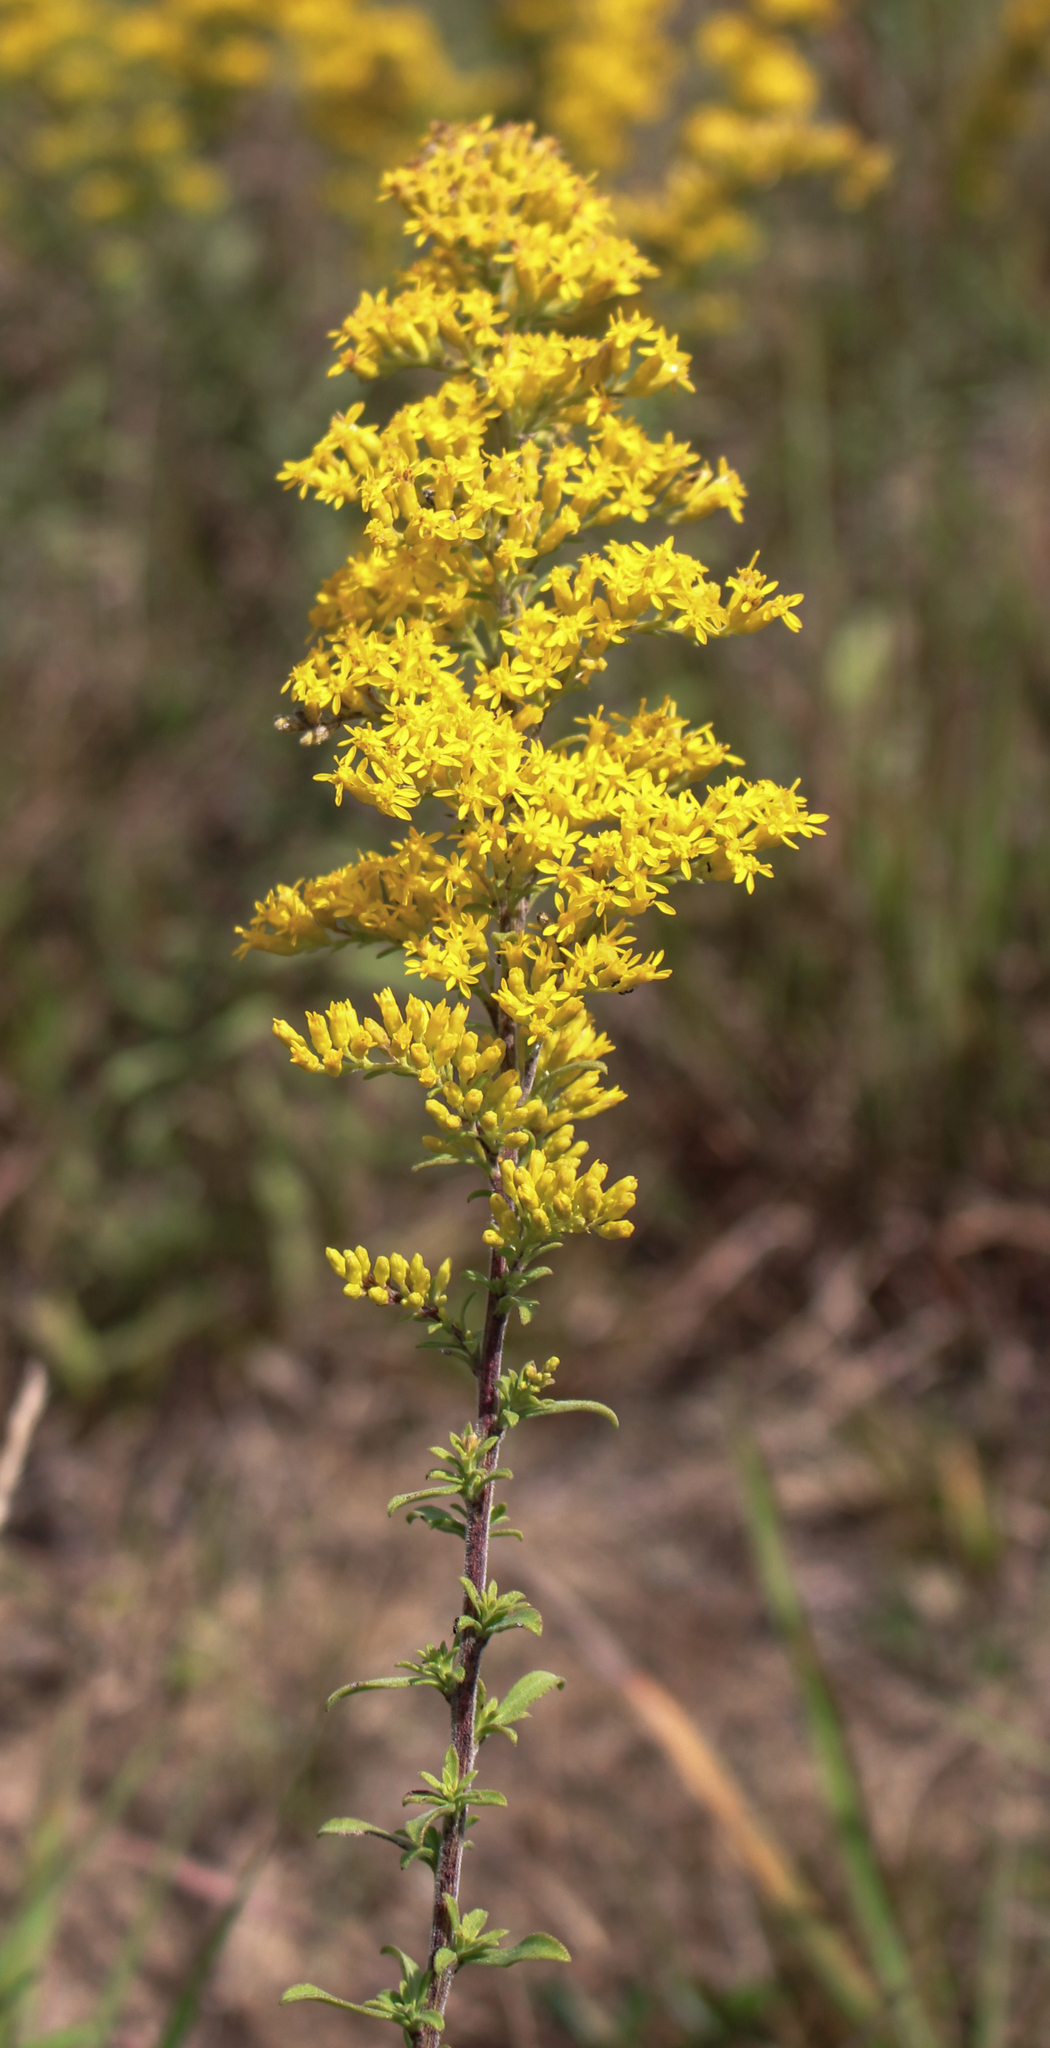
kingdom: Plantae
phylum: Tracheophyta
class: Magnoliopsida
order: Asterales
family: Asteraceae
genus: Solidago
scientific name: Solidago nemoralis
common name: Grey goldenrod
